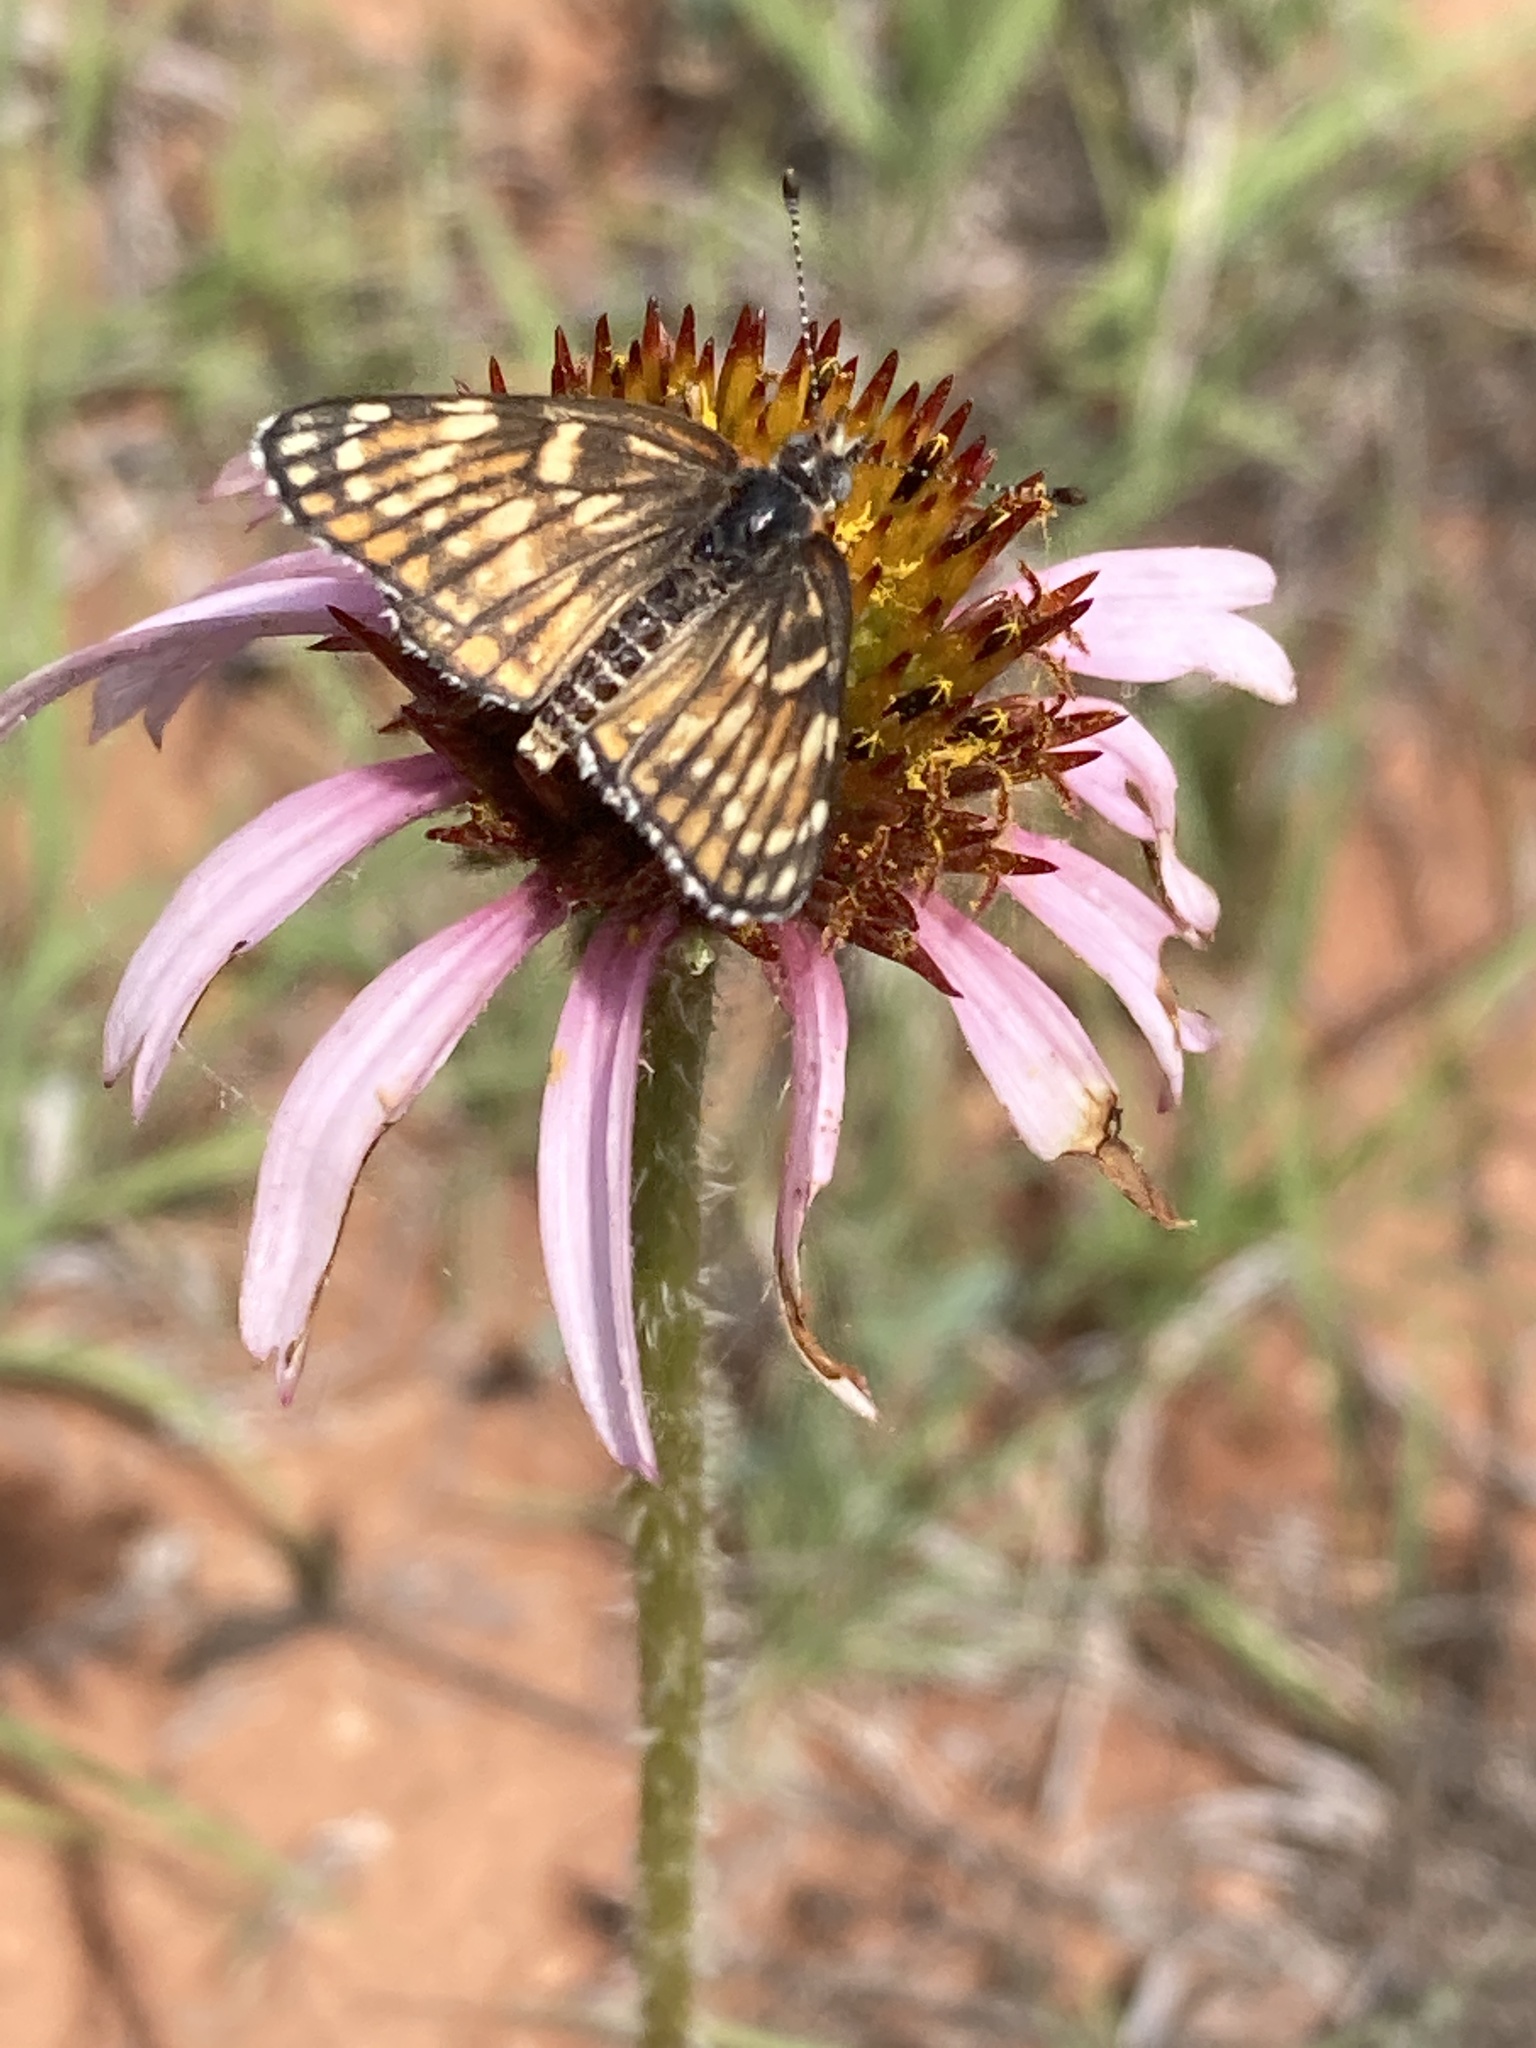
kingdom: Animalia
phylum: Arthropoda
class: Insecta
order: Lepidoptera
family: Nymphalidae
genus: Thessalia
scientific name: Thessalia leanira
